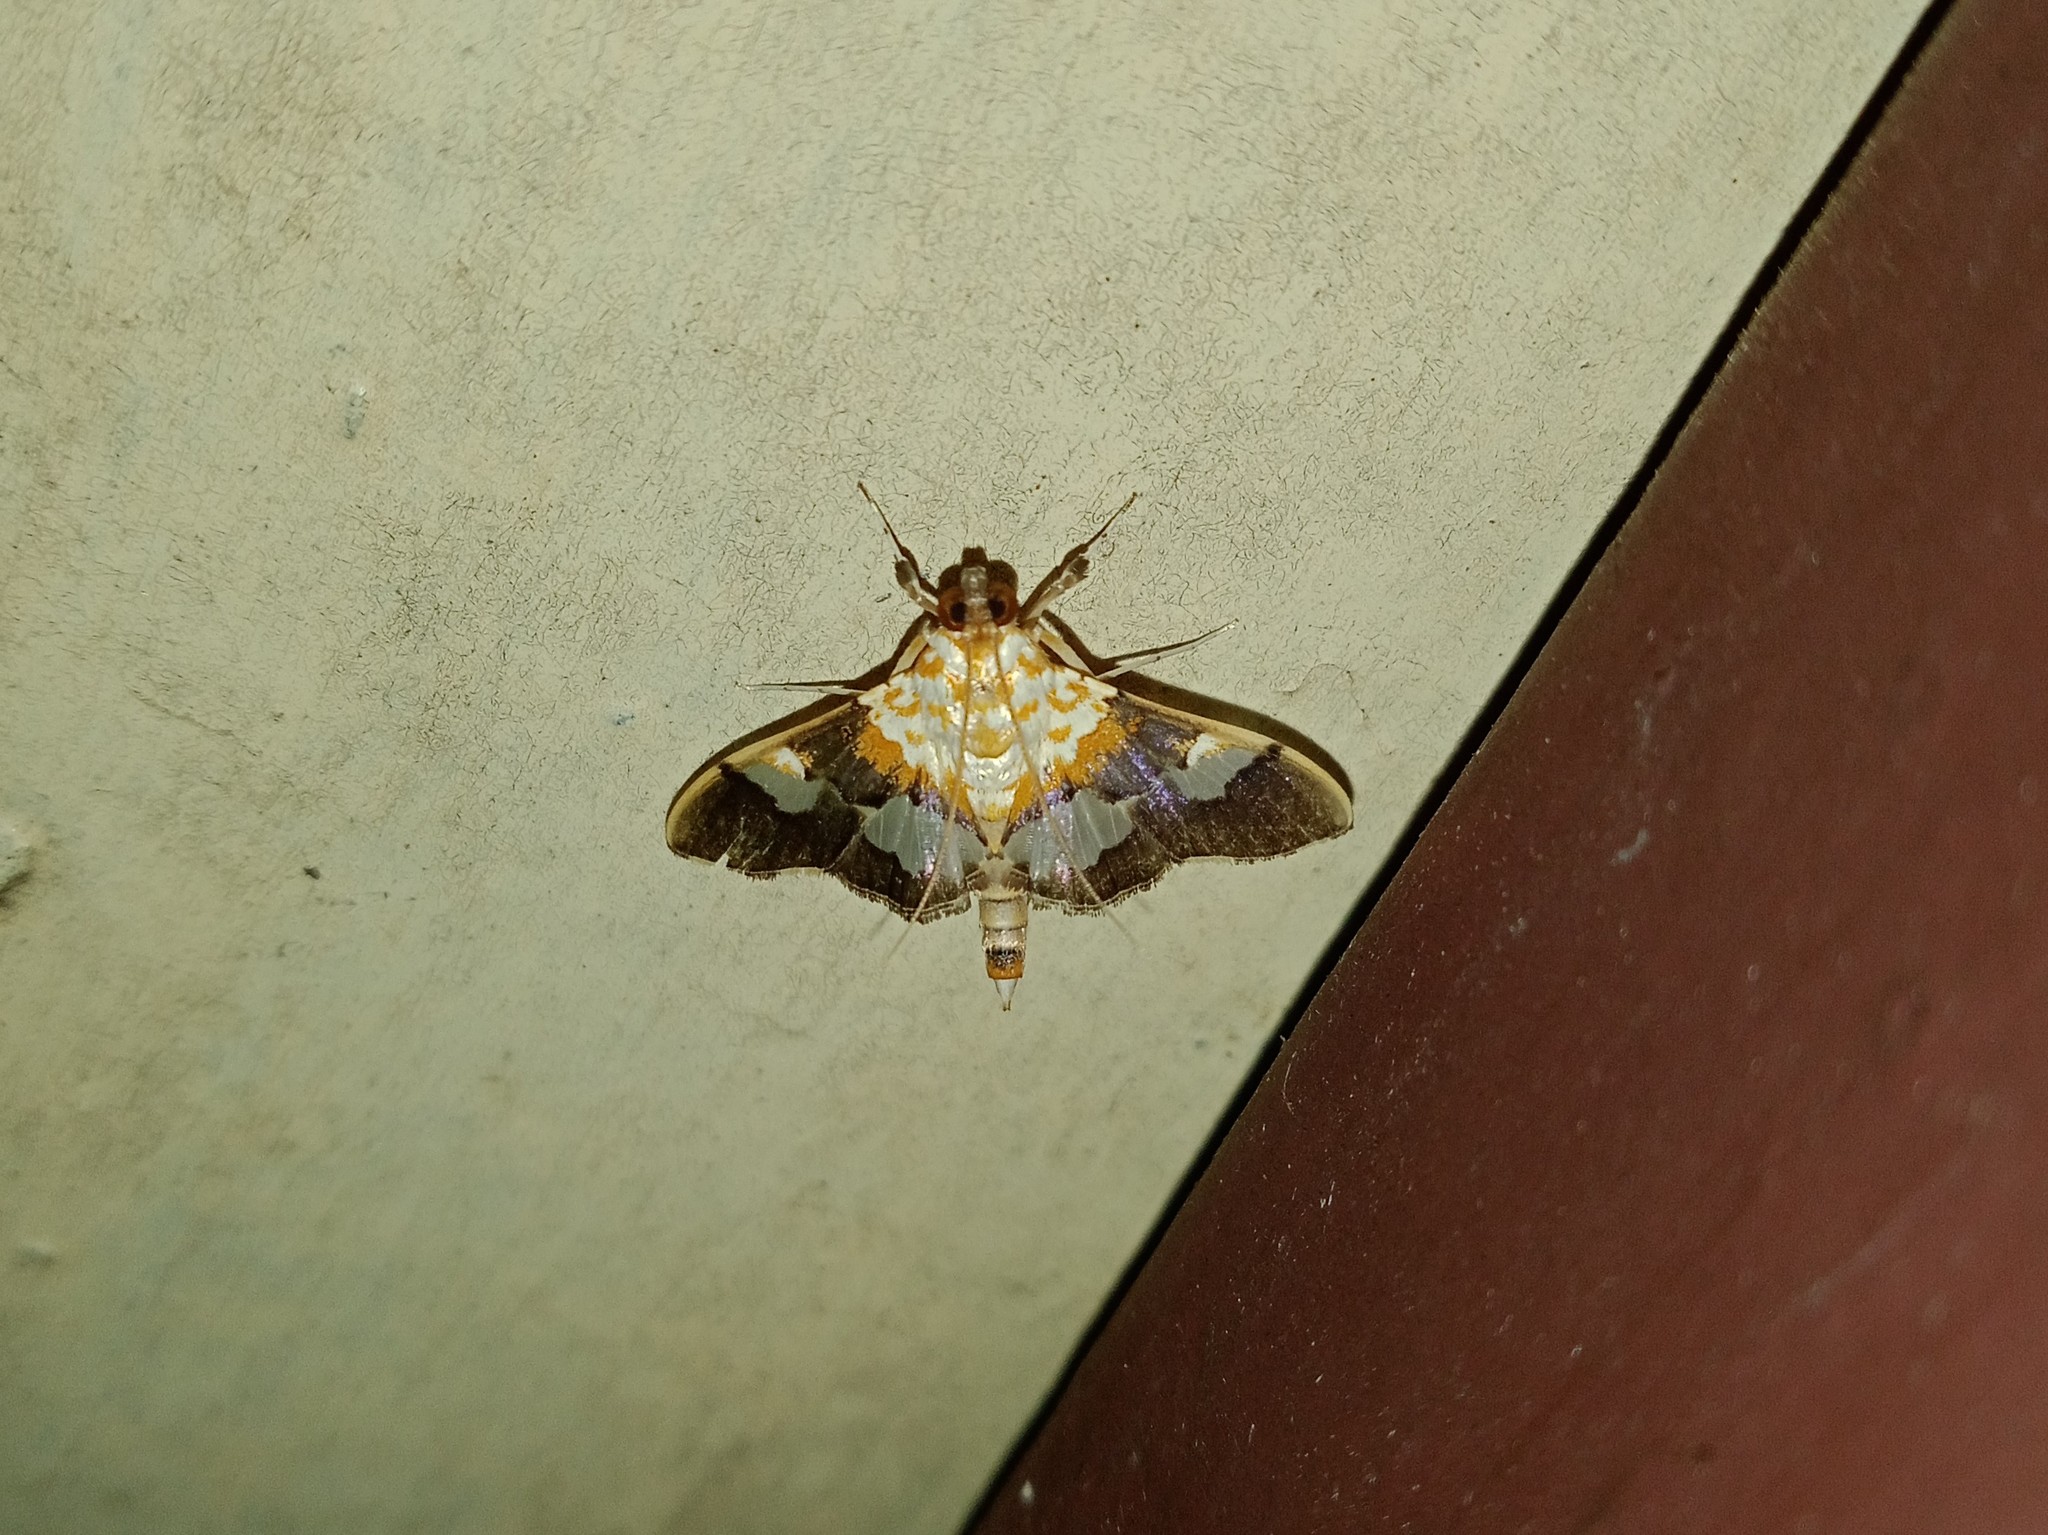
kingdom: Animalia
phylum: Arthropoda
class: Insecta
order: Lepidoptera
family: Crambidae
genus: Aetholix
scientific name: Aetholix flavibasalis
